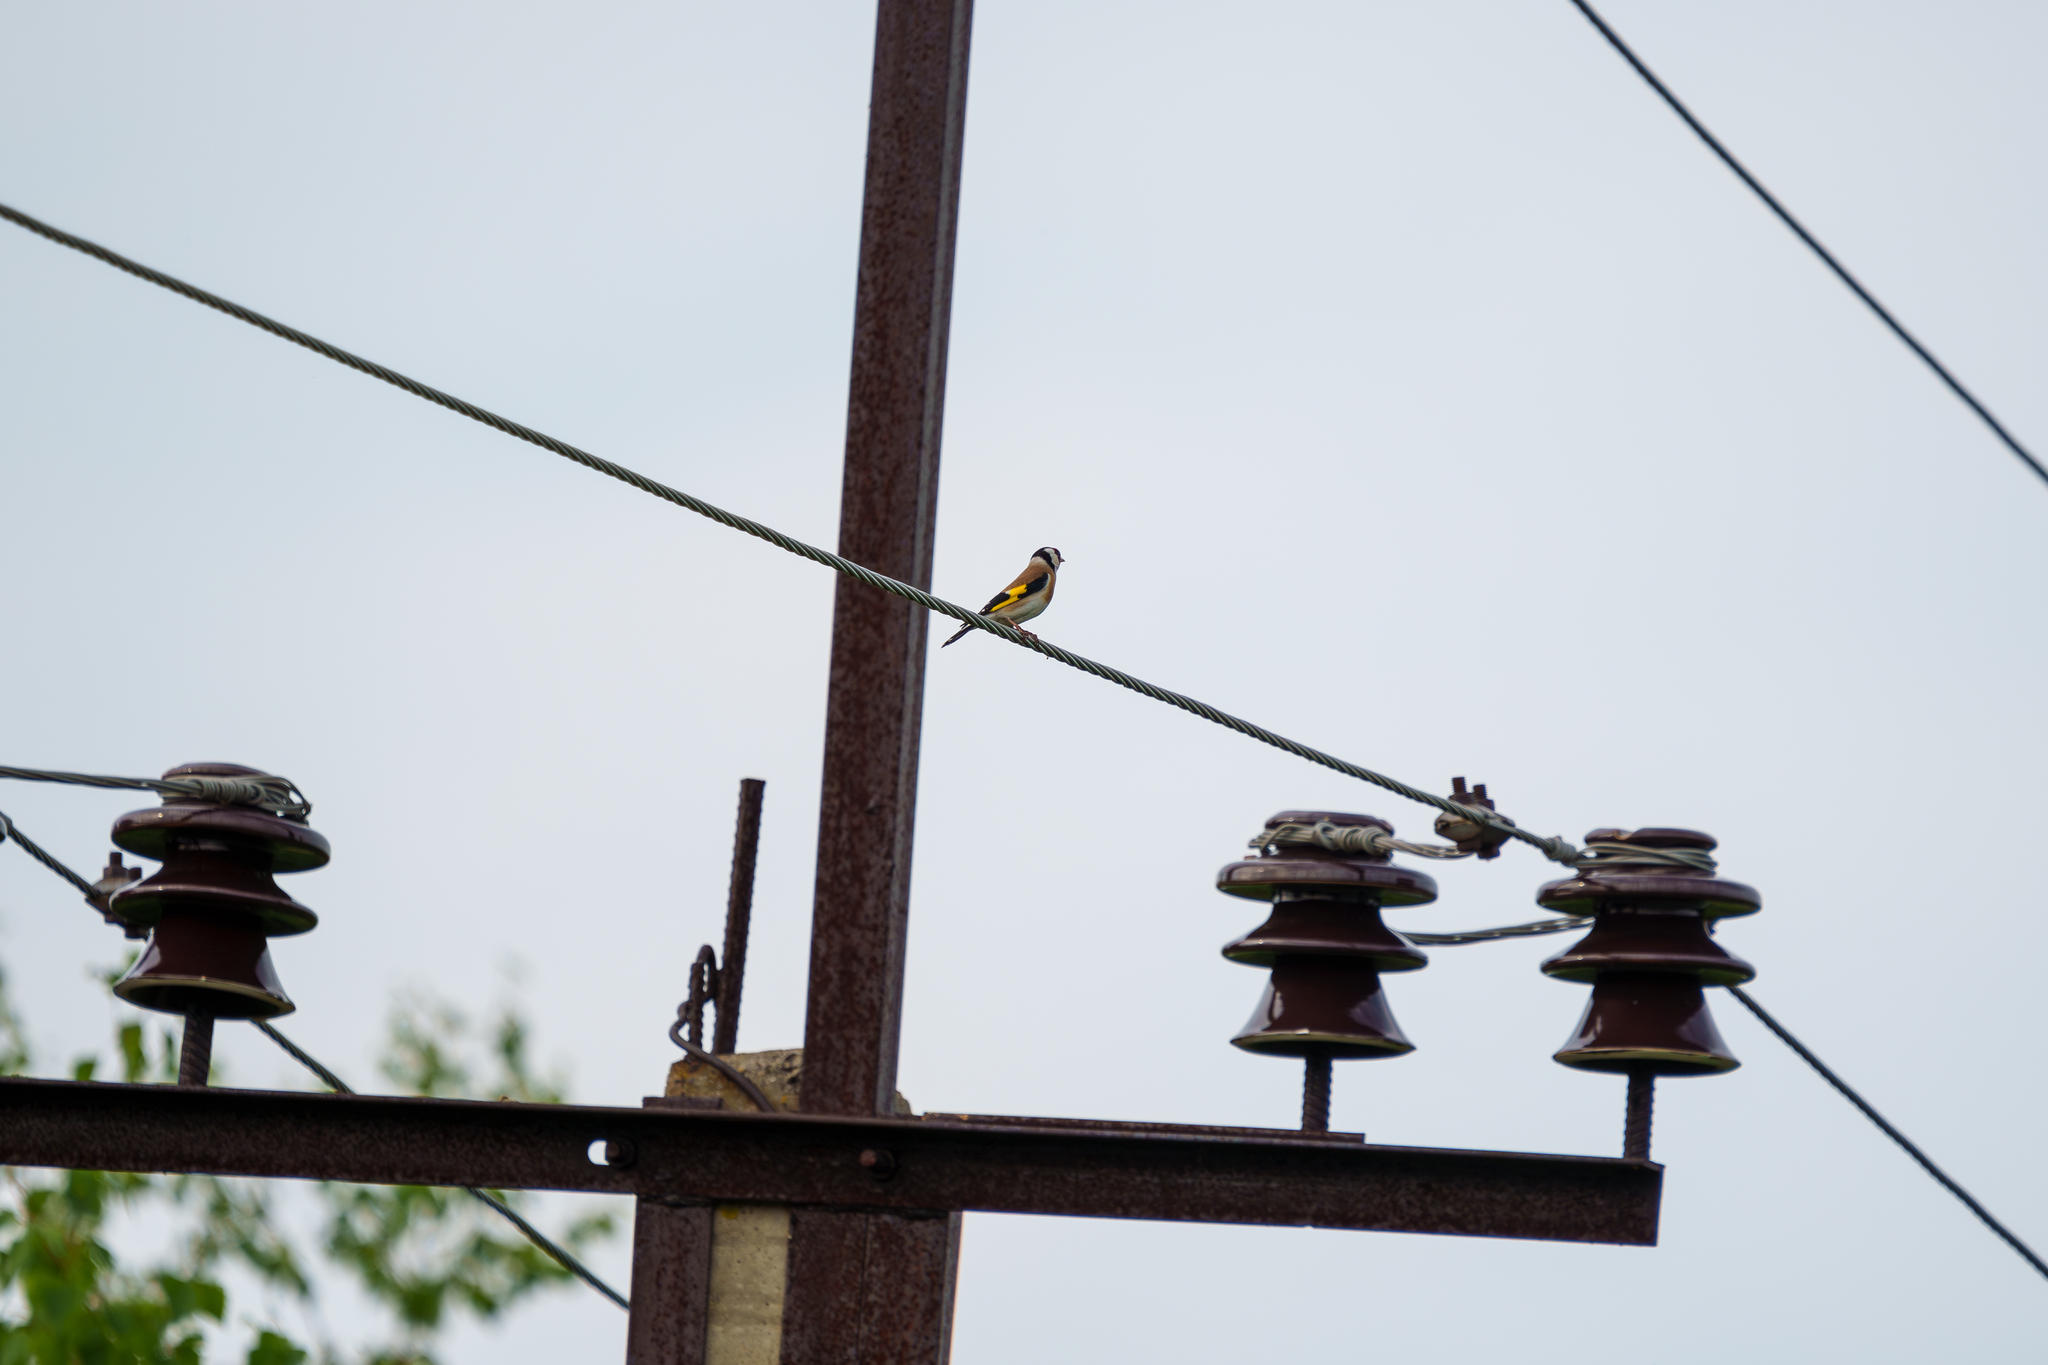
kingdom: Animalia
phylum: Chordata
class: Aves
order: Passeriformes
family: Fringillidae
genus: Carduelis
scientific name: Carduelis carduelis
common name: European goldfinch
